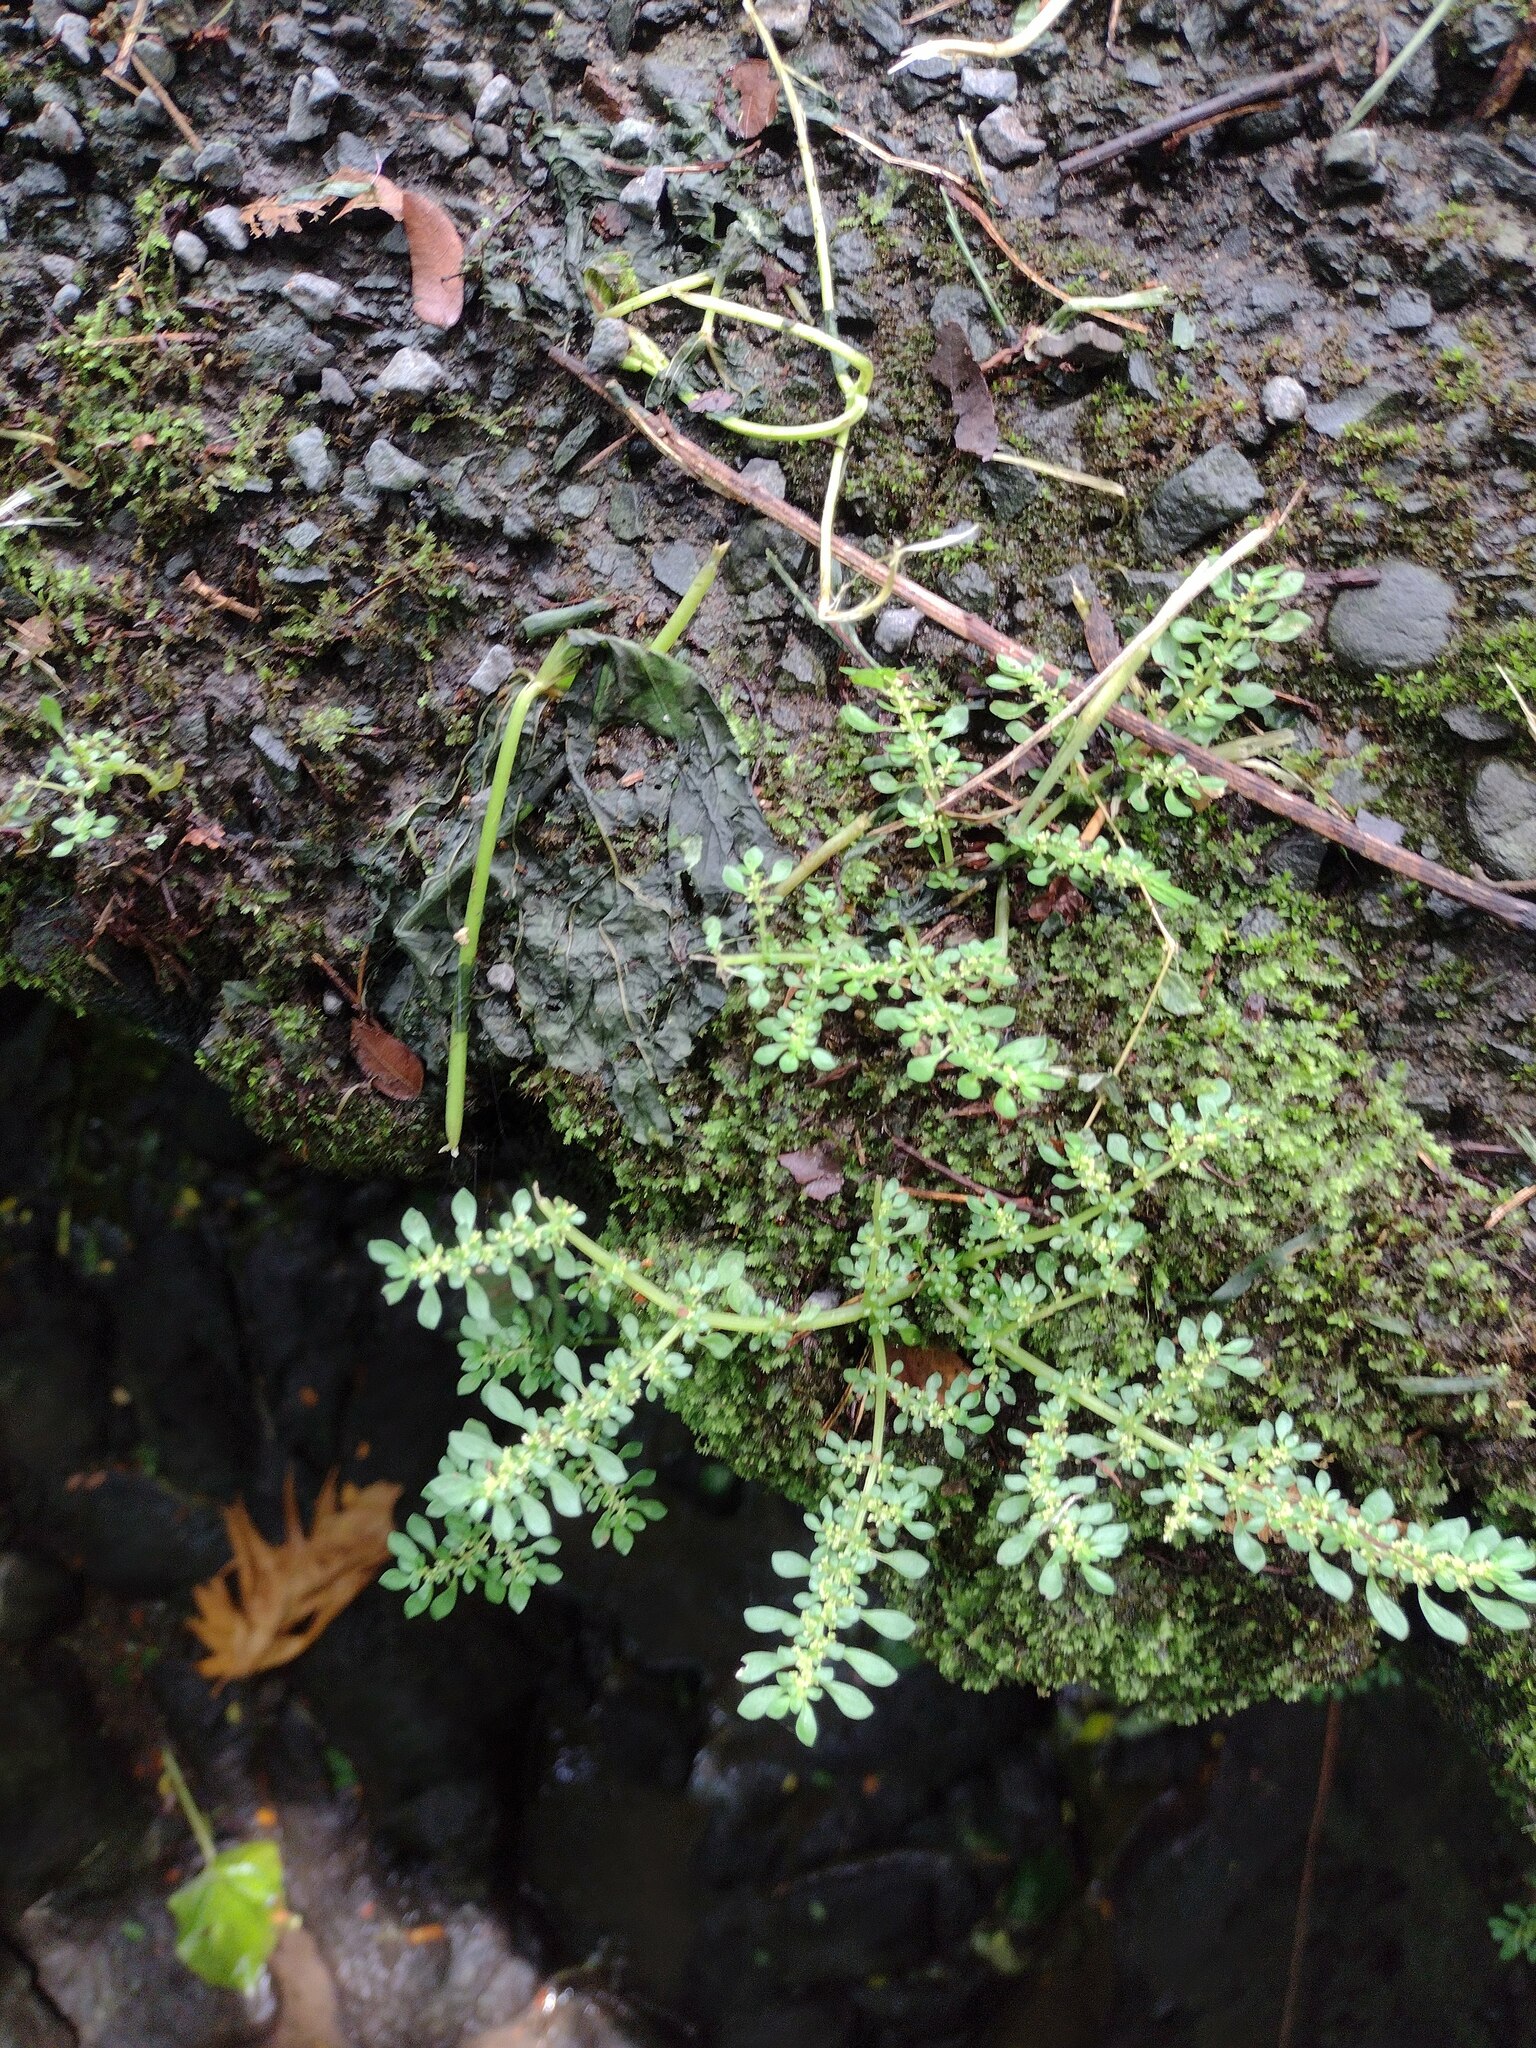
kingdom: Plantae
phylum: Tracheophyta
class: Magnoliopsida
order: Rosales
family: Urticaceae
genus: Pilea
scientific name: Pilea microphylla
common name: Artillery-plant
